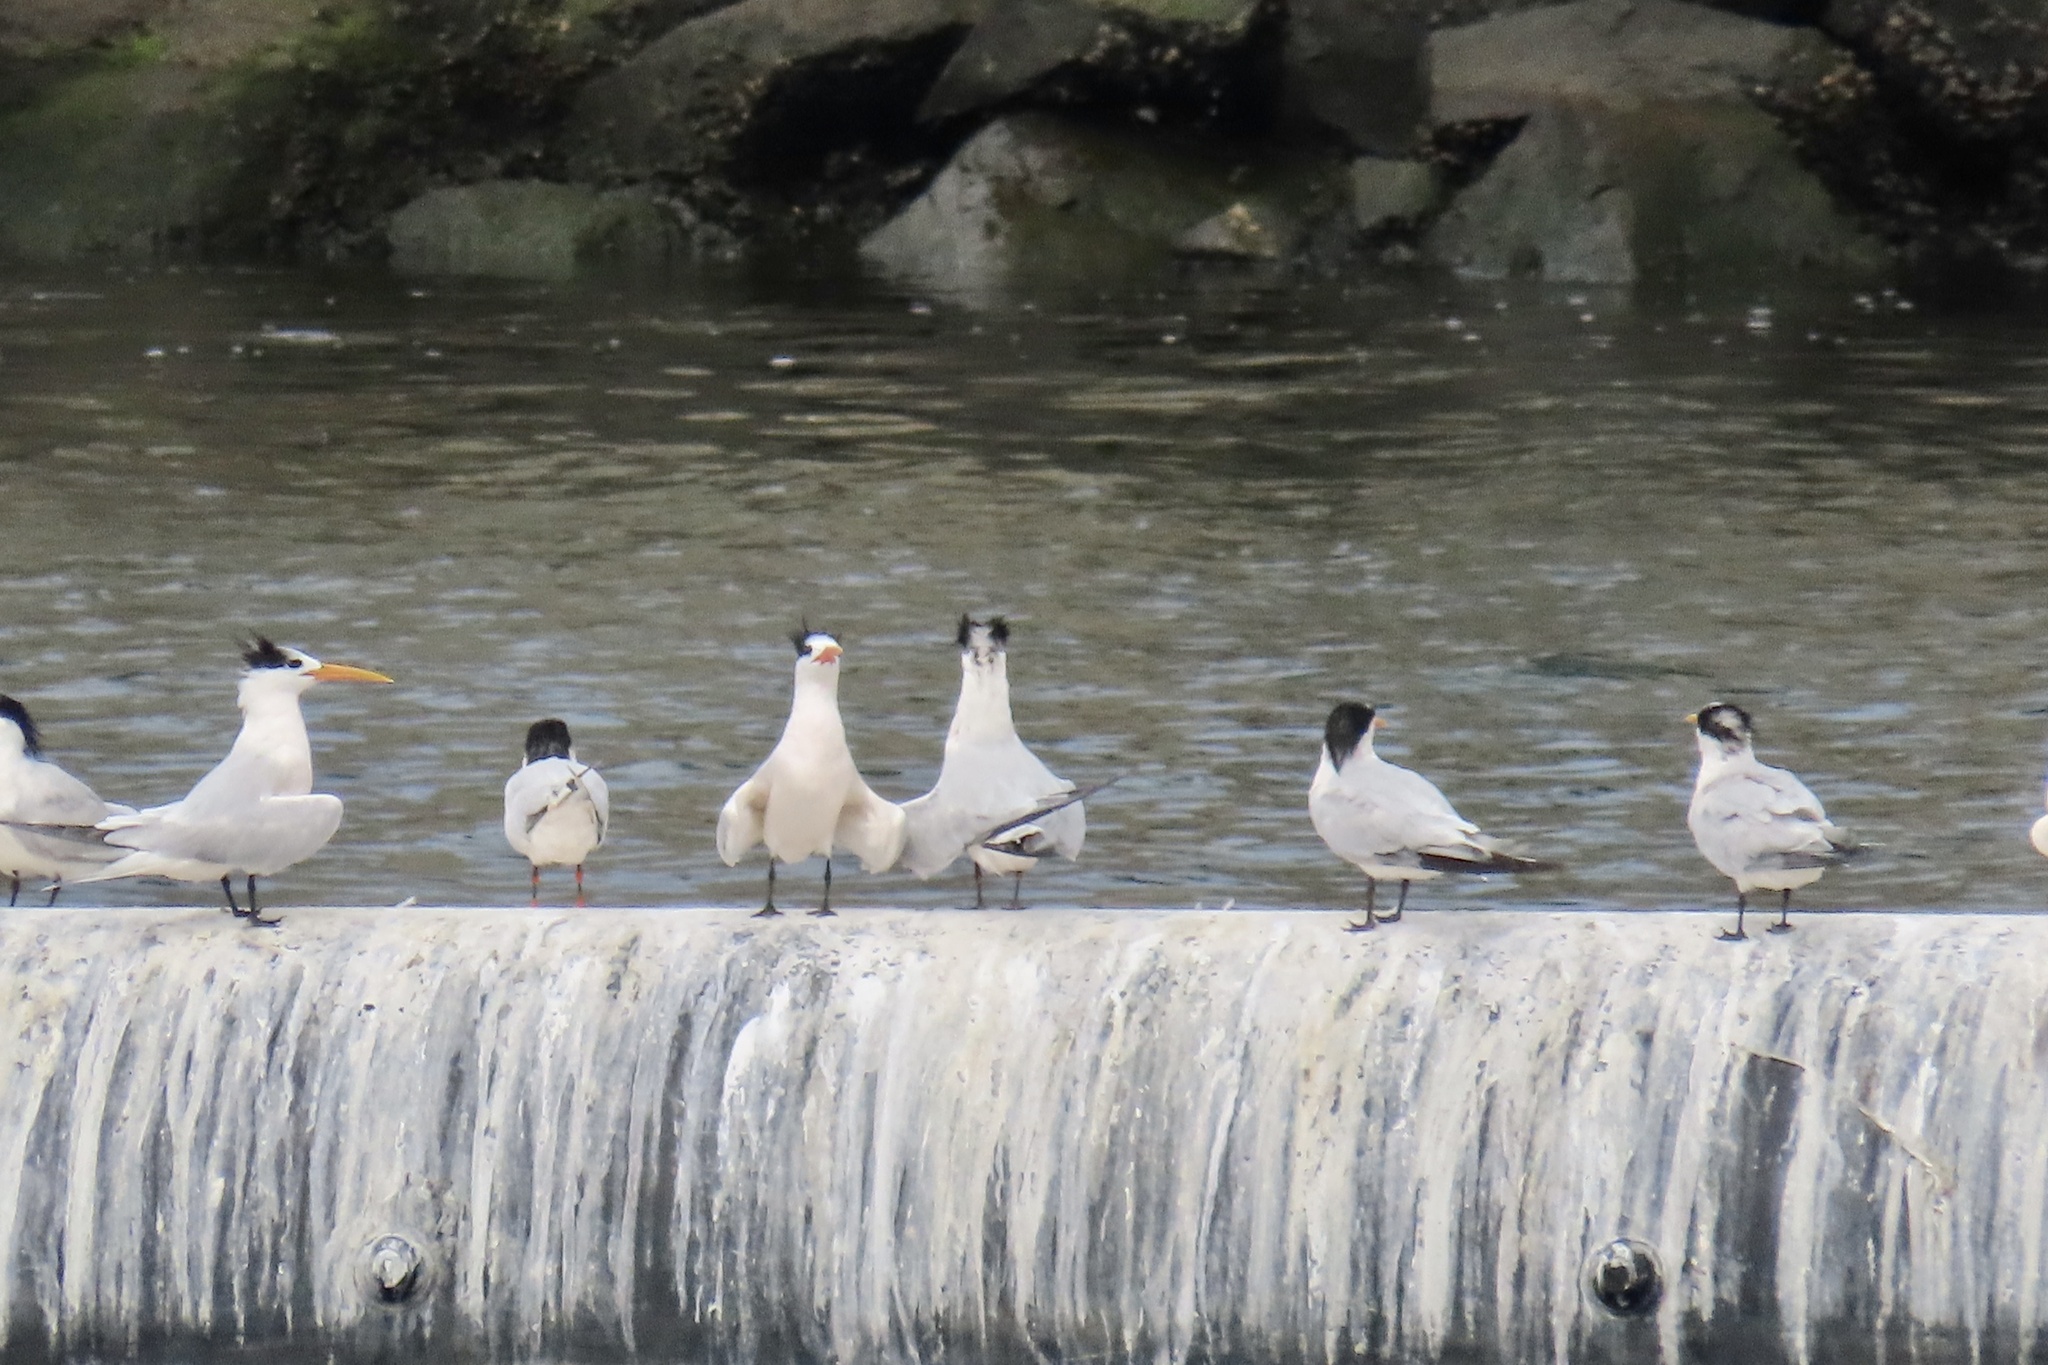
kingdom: Animalia
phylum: Chordata
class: Aves
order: Charadriiformes
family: Laridae
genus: Thalasseus
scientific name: Thalasseus maximus
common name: Royal tern
